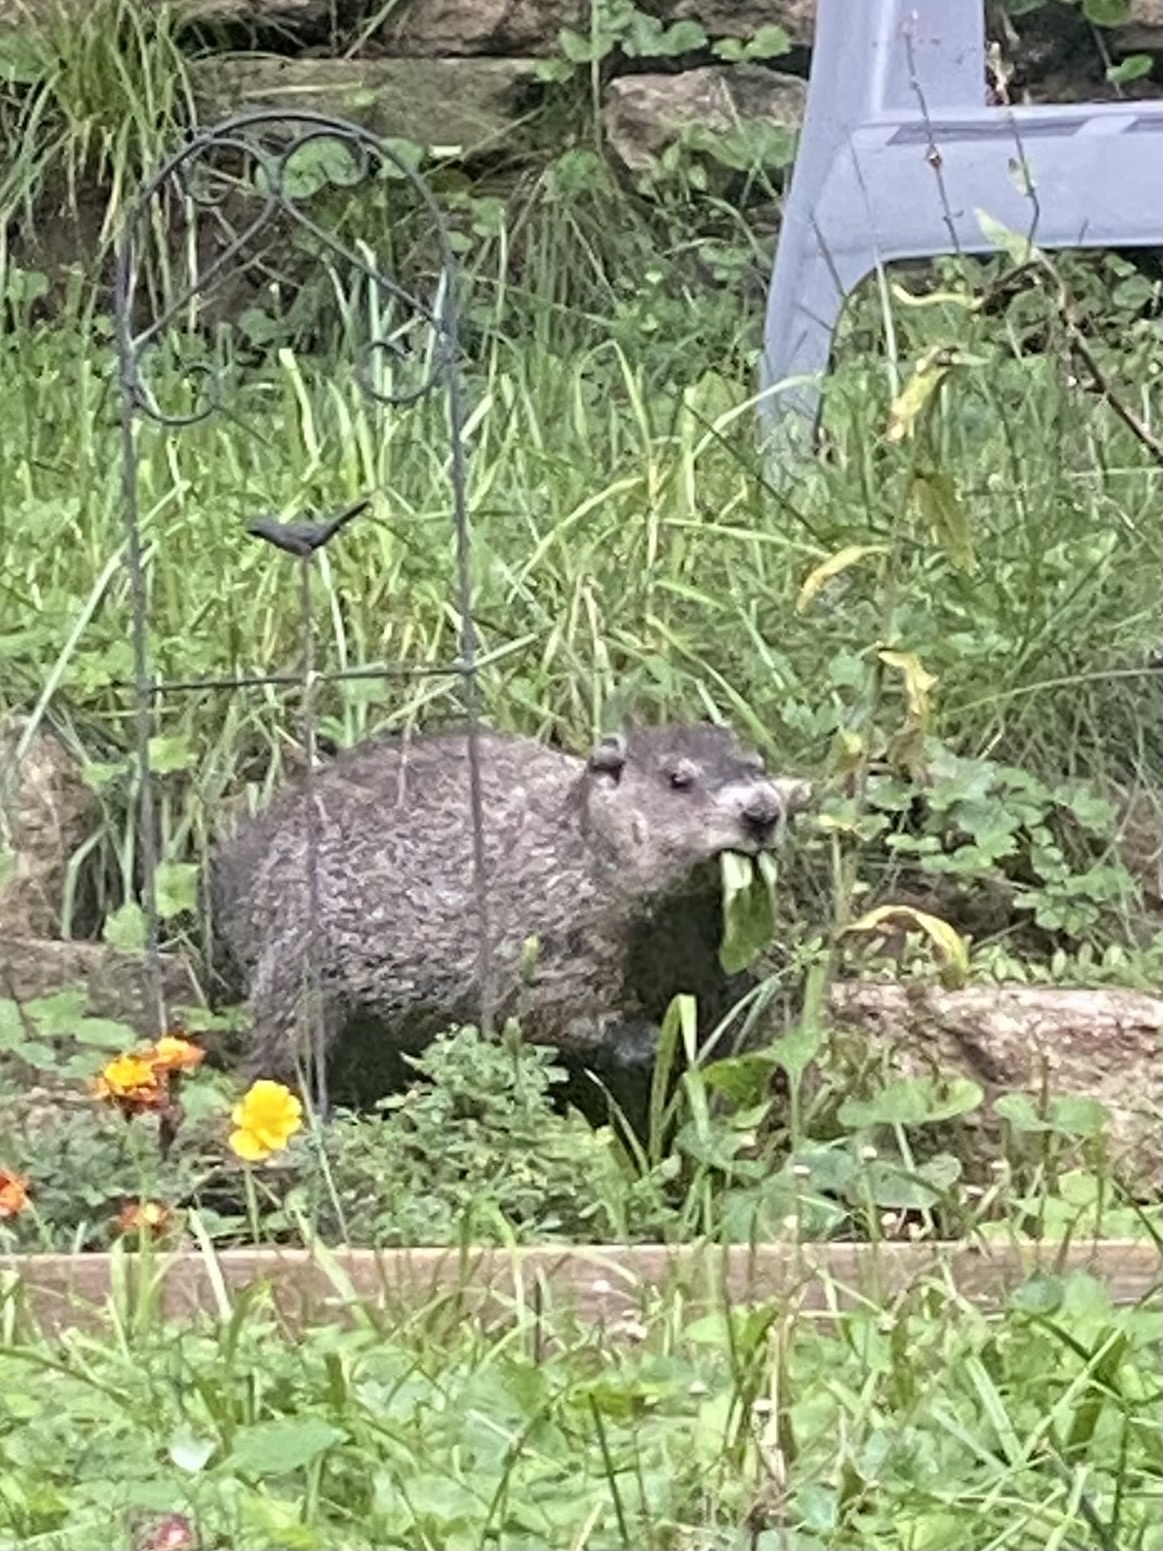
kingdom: Animalia
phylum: Chordata
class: Mammalia
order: Rodentia
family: Sciuridae
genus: Marmota
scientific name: Marmota monax
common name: Groundhog
